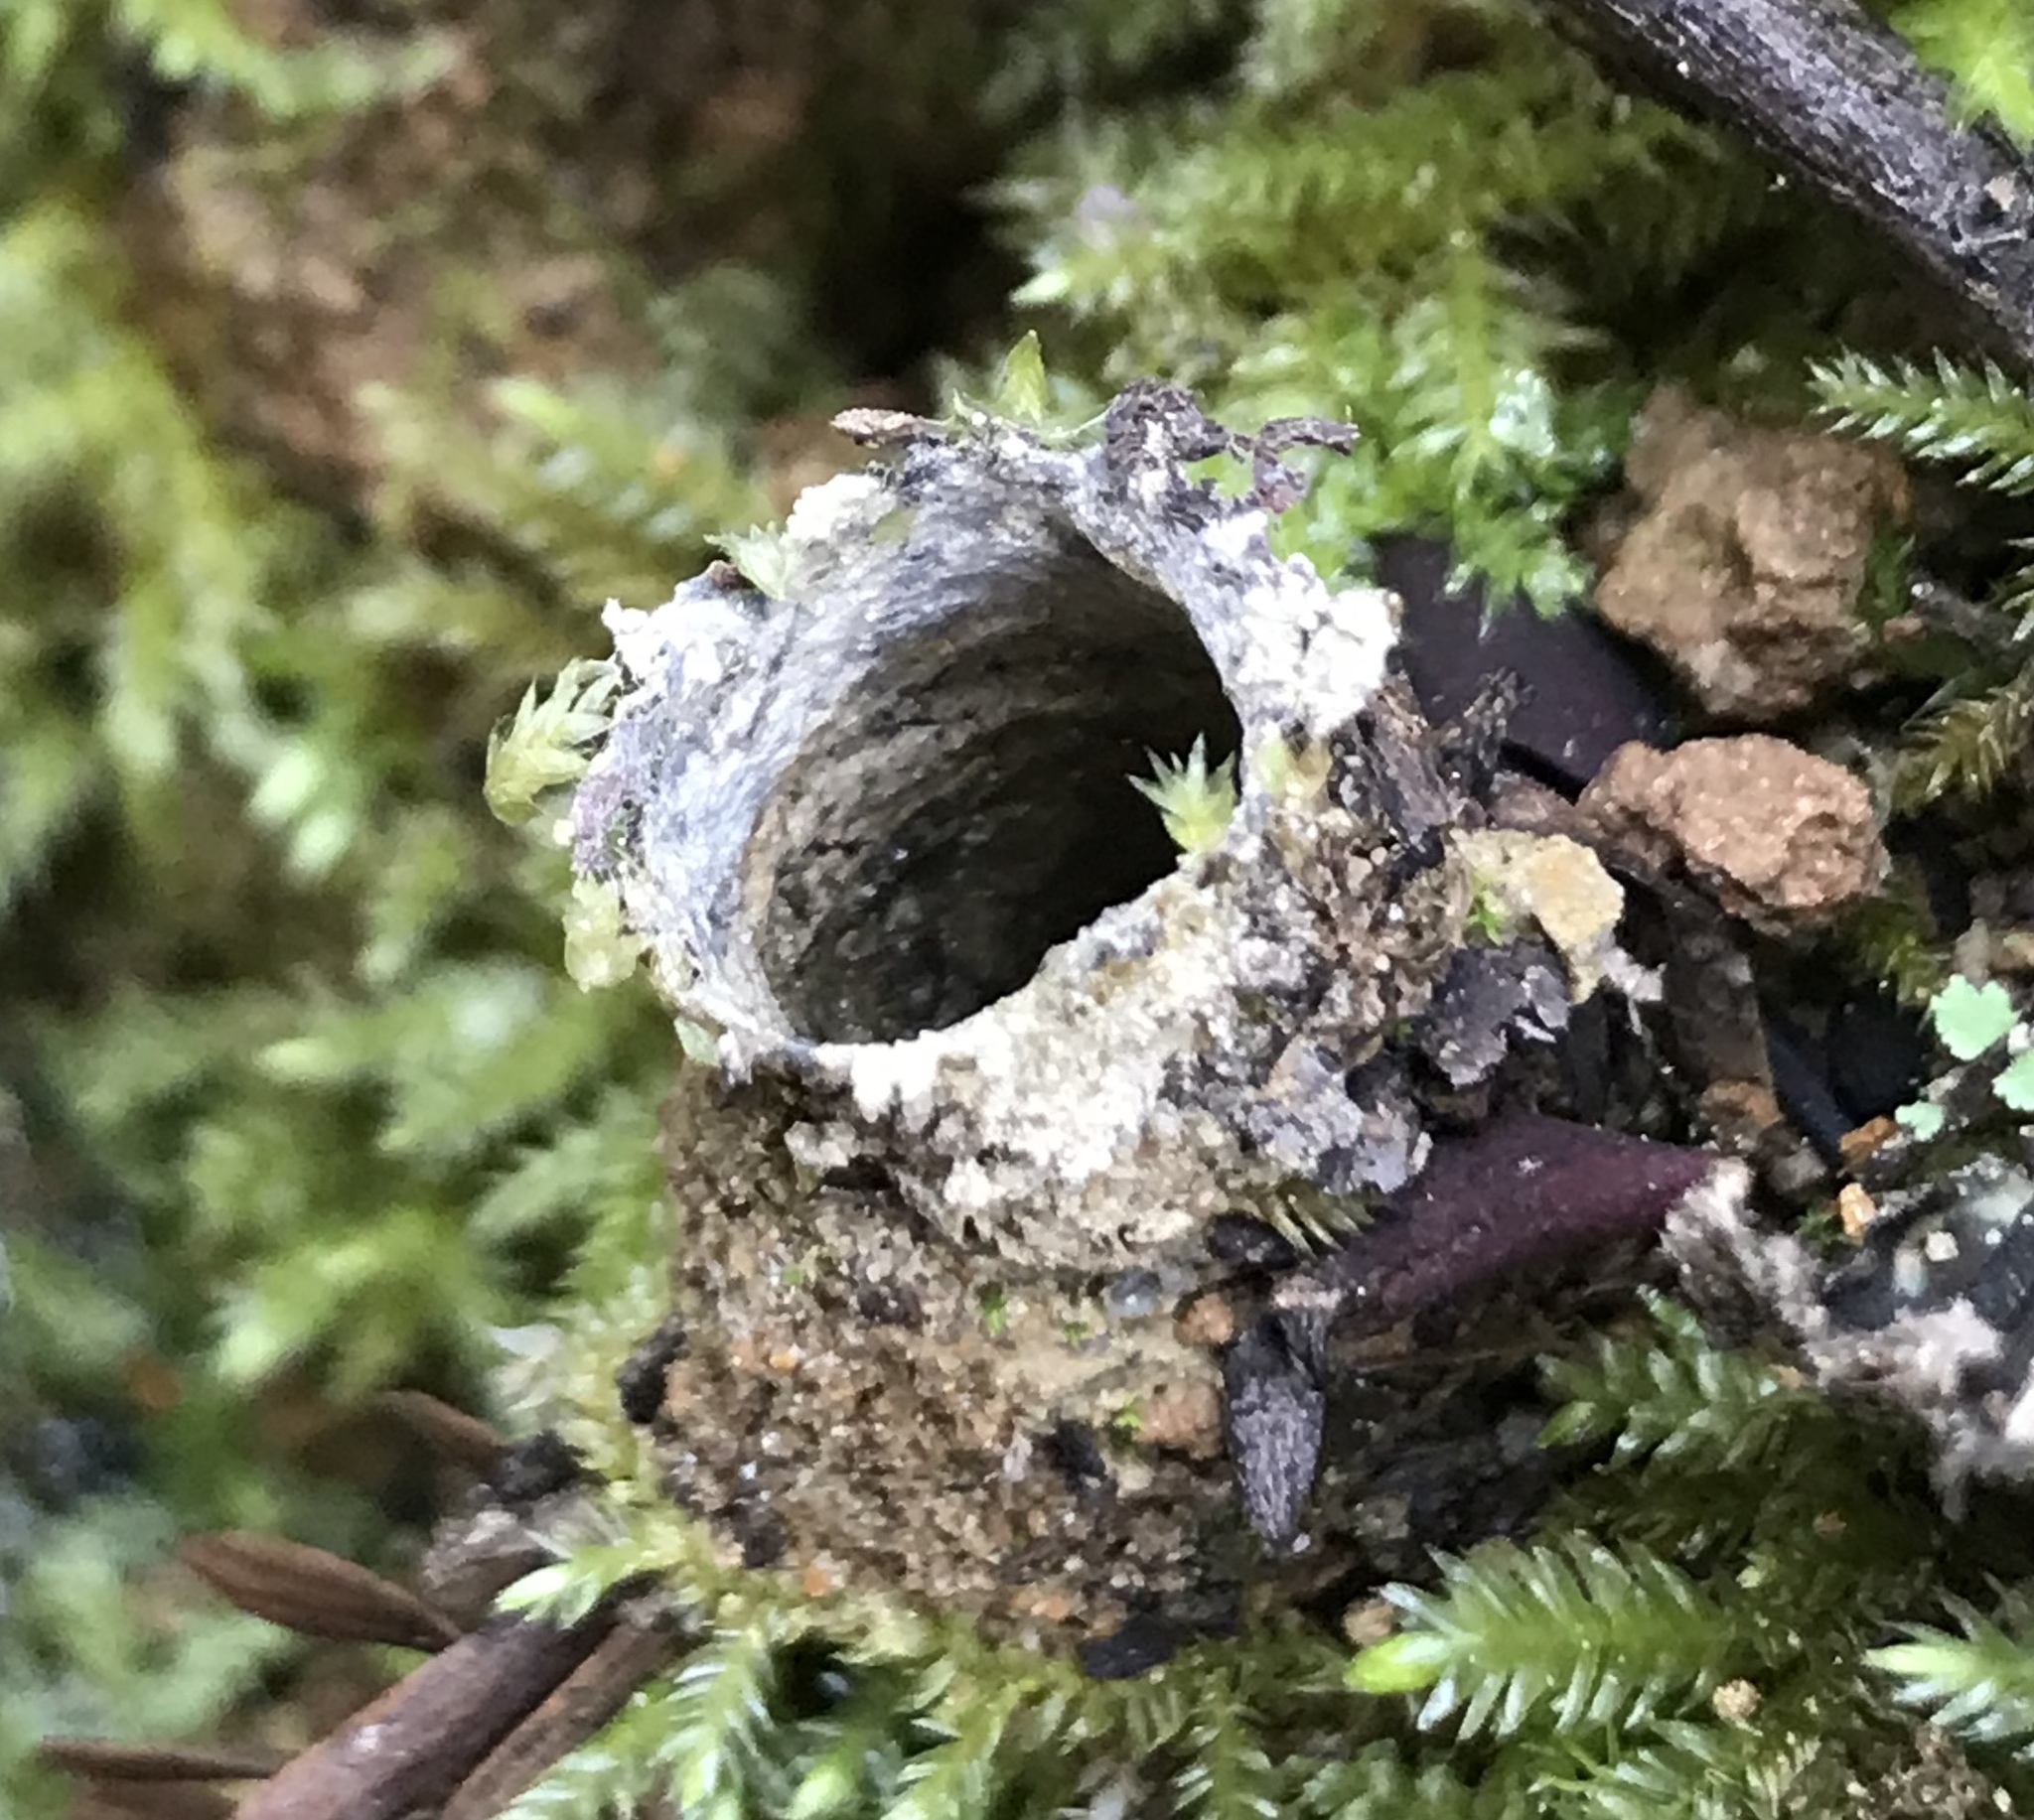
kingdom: Animalia
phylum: Arthropoda
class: Arachnida
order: Araneae
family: Antrodiaetidae
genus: Atypoides
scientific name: Atypoides riversi
